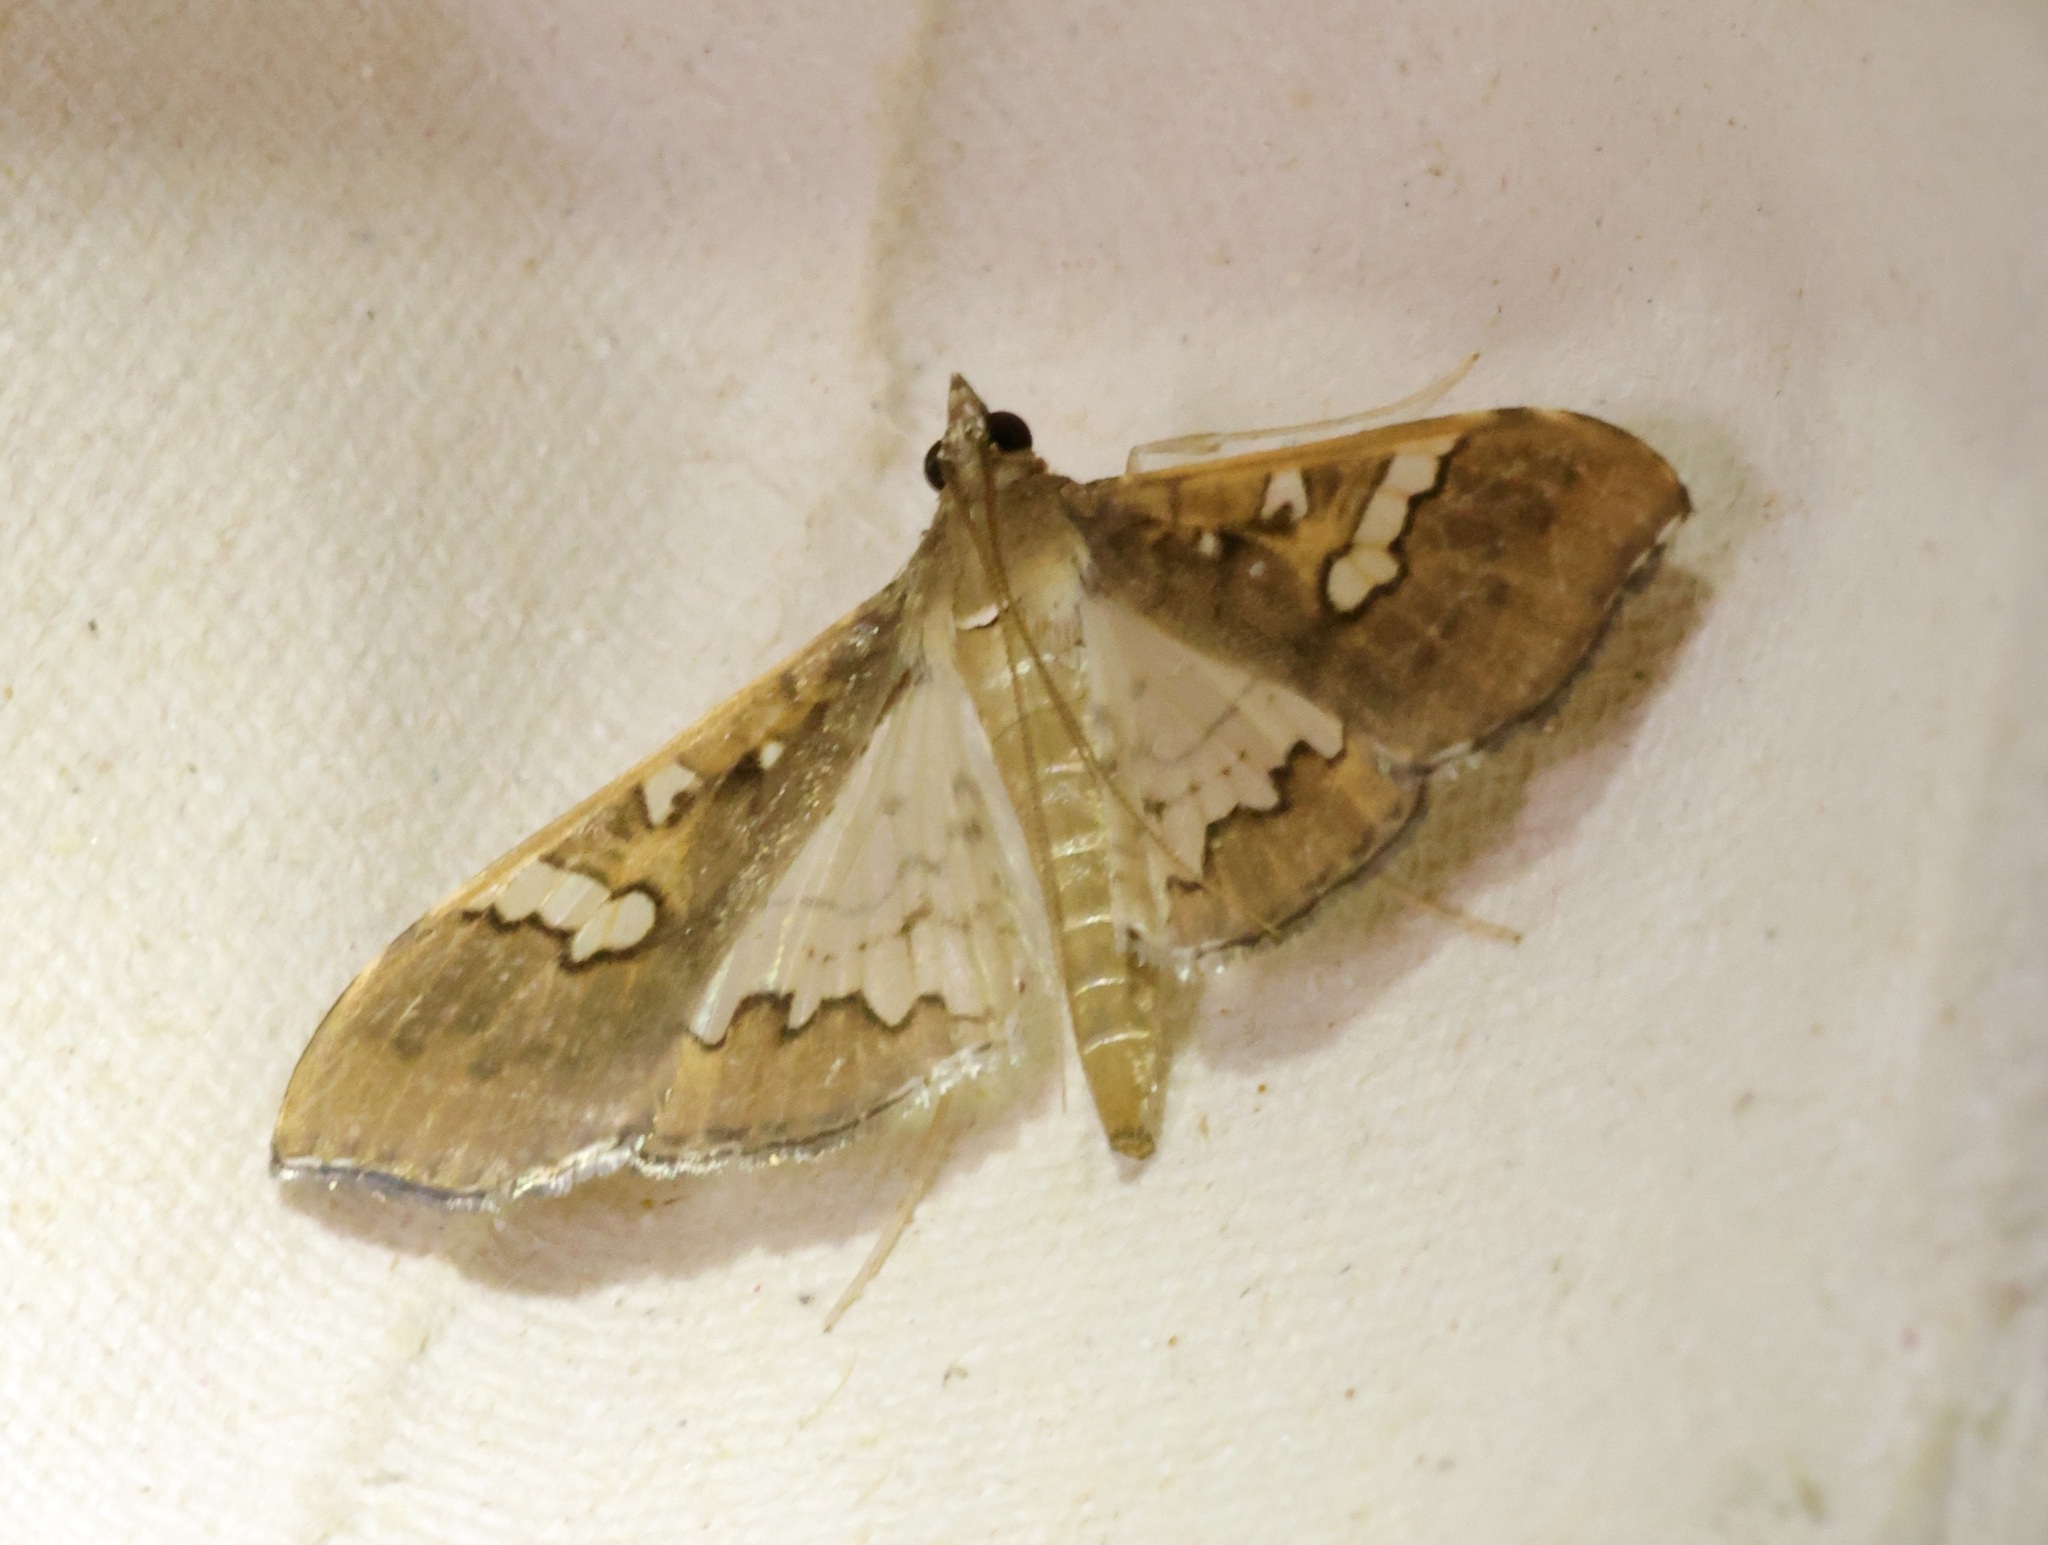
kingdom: Animalia
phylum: Arthropoda
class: Insecta
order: Lepidoptera
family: Crambidae
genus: Maruca
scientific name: Maruca vitrata
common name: Maruca pod borer
